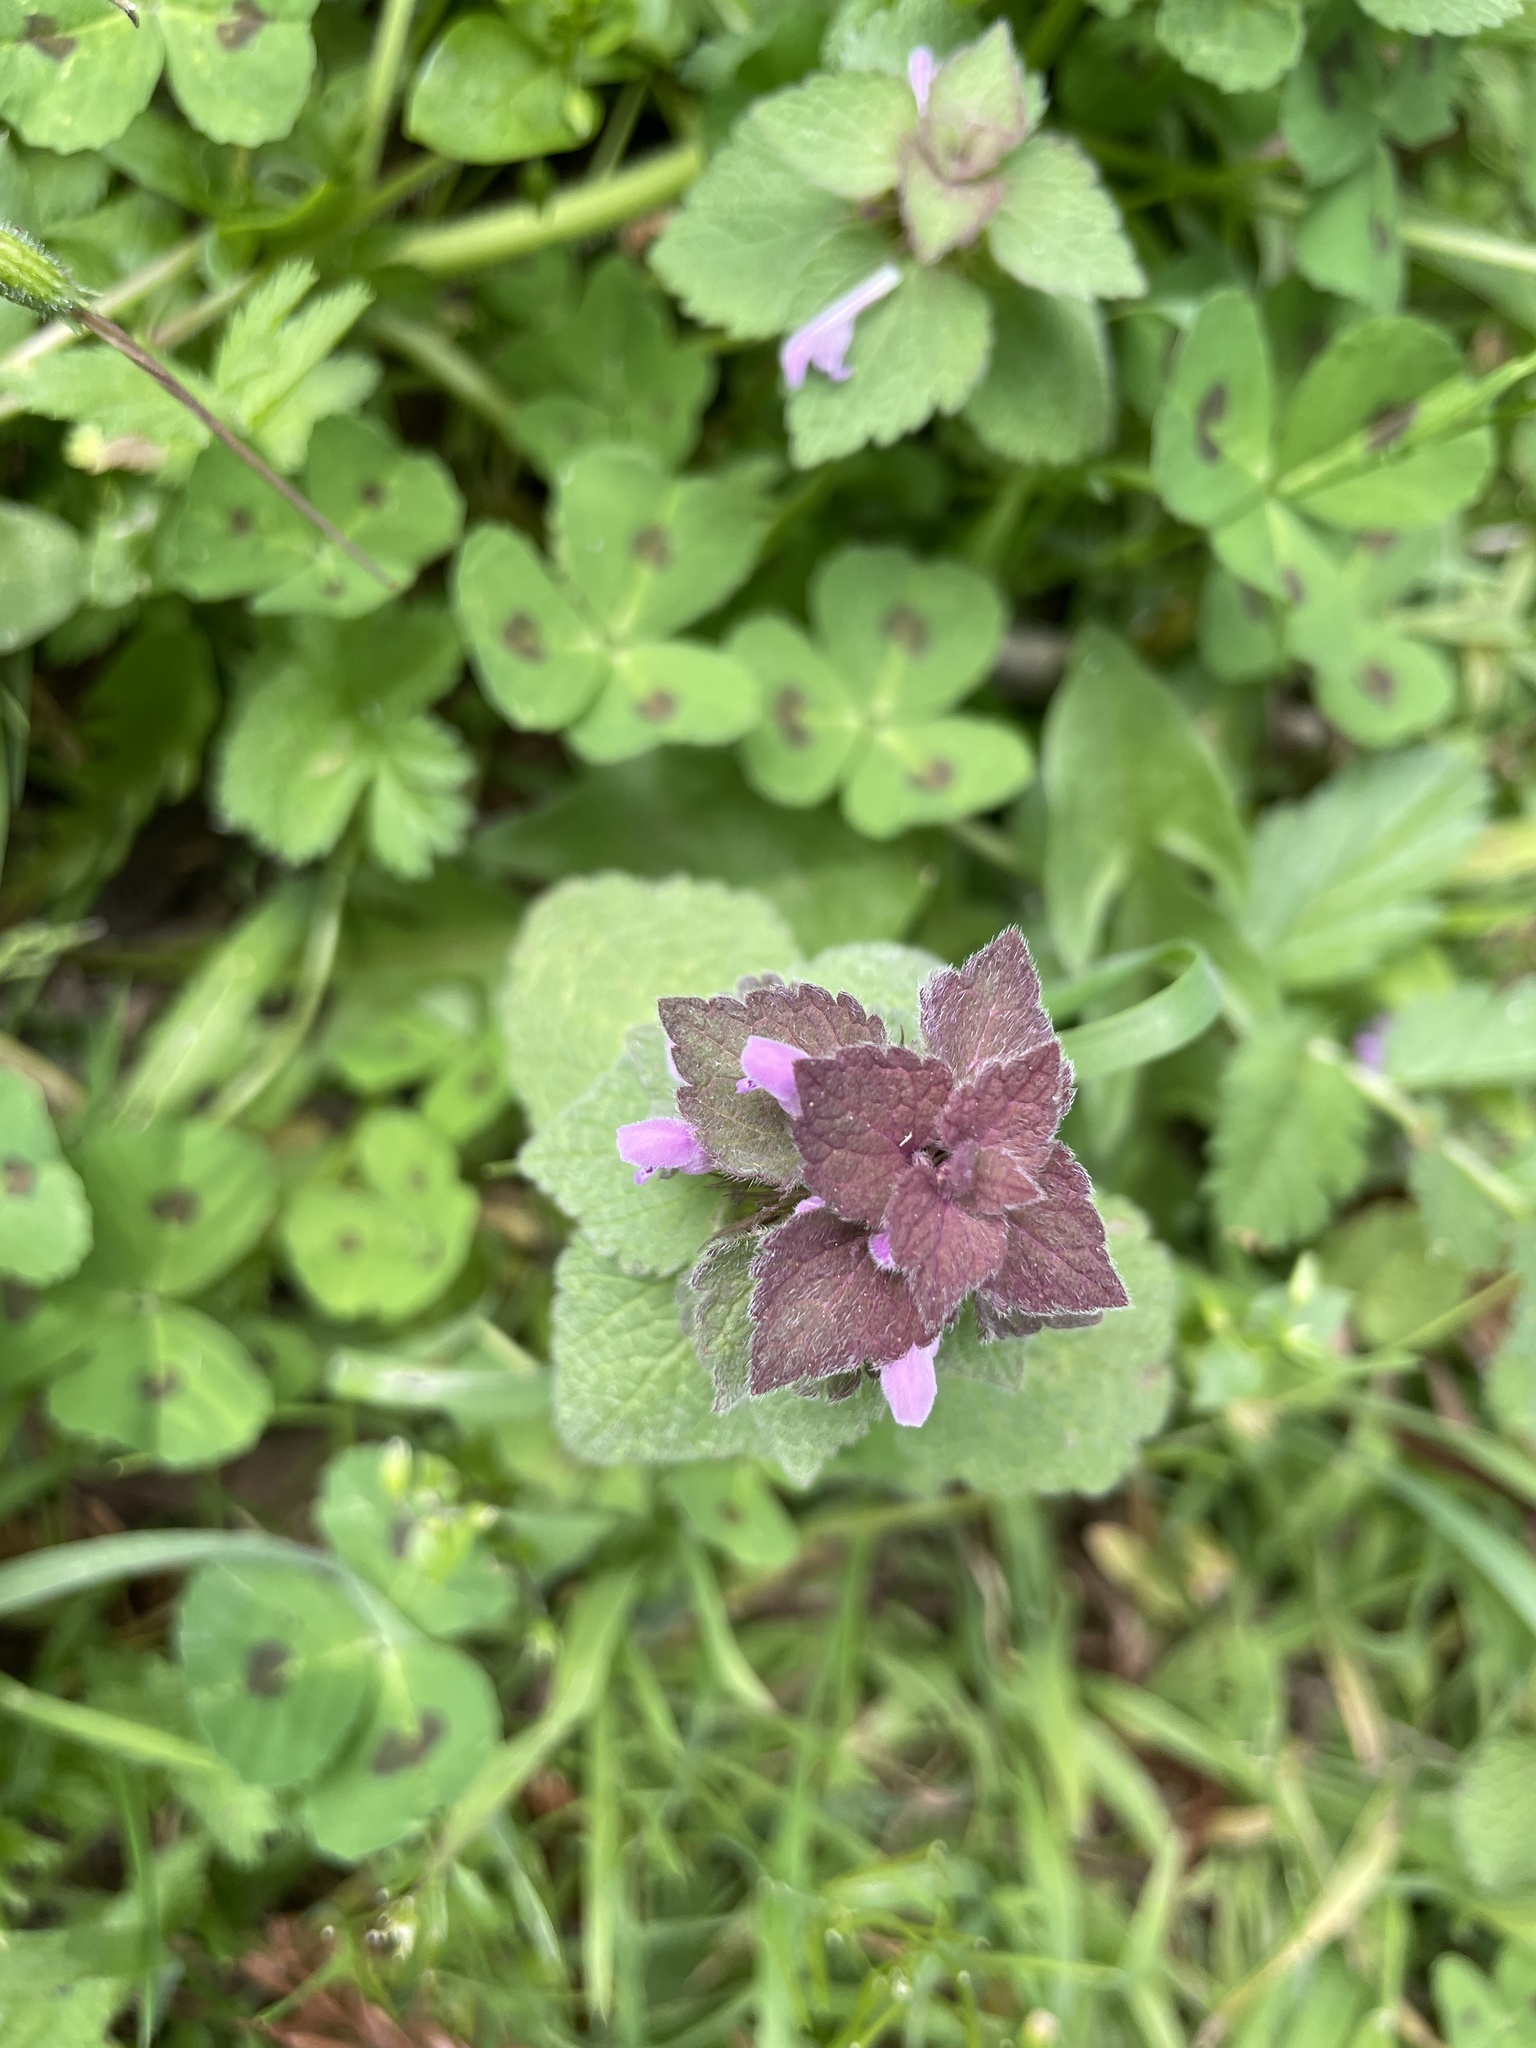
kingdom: Plantae
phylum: Tracheophyta
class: Magnoliopsida
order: Lamiales
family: Lamiaceae
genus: Lamium
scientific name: Lamium purpureum
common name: Red dead-nettle
